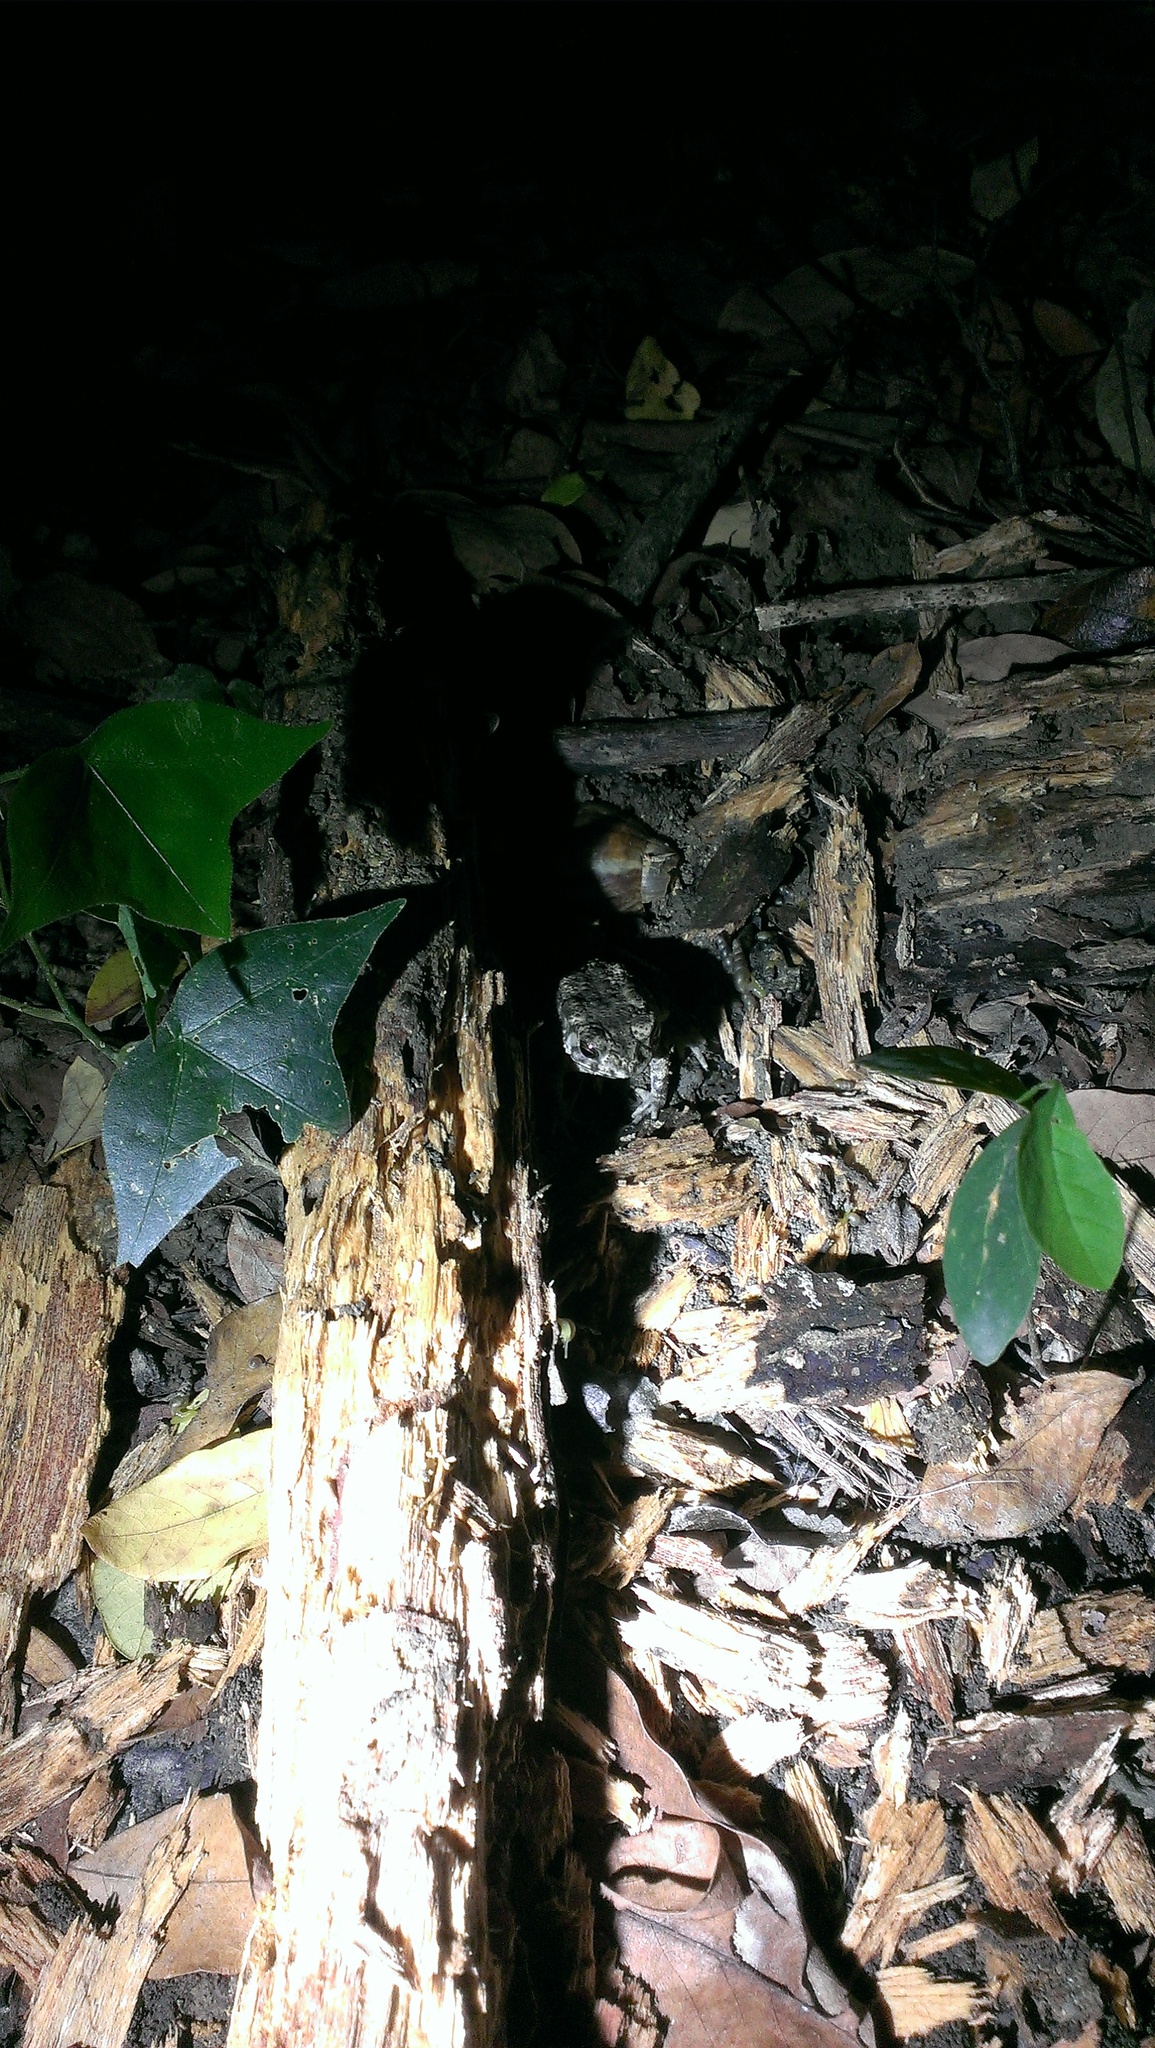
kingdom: Animalia
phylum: Chordata
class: Amphibia
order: Anura
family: Bufonidae
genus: Duttaphrynus
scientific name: Duttaphrynus melanostictus
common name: Common sunda toad
